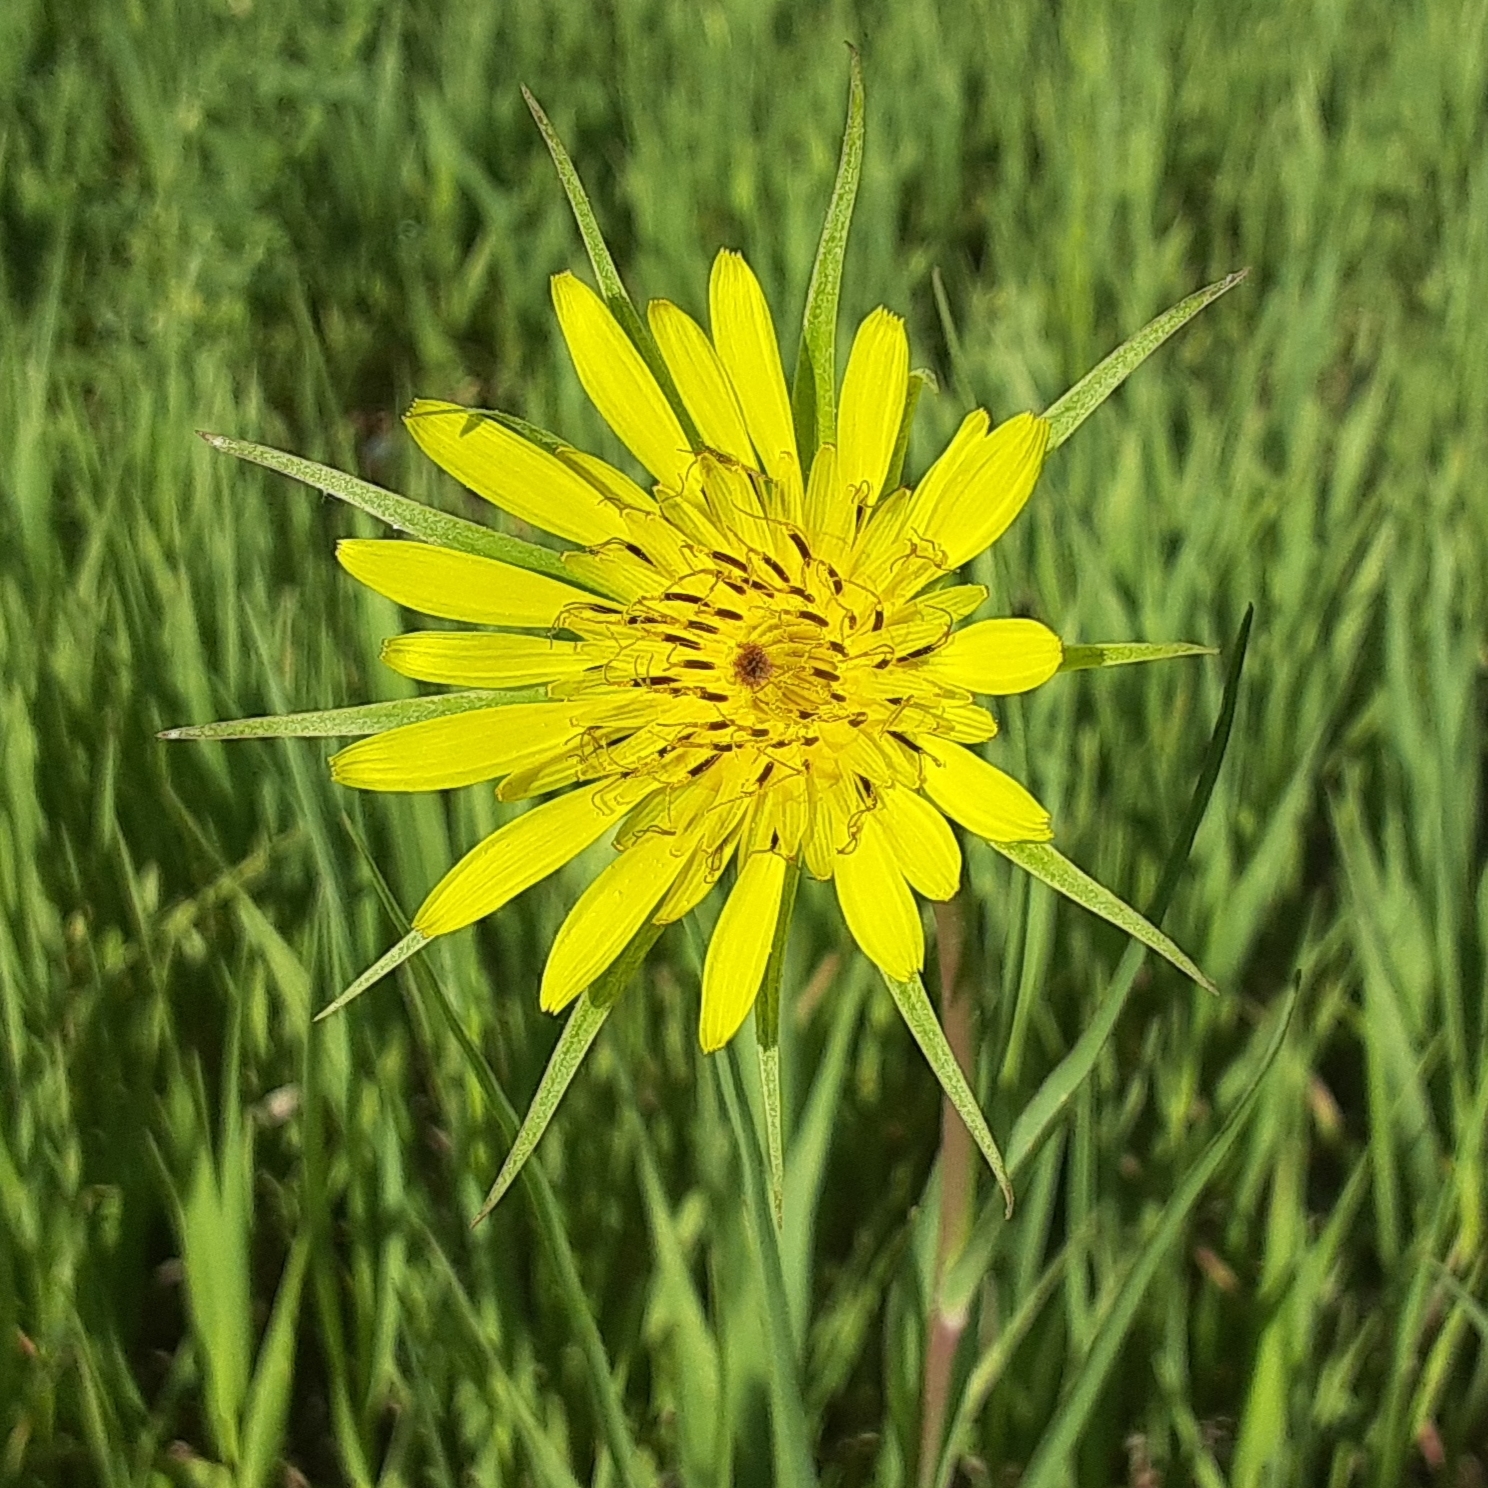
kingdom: Plantae
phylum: Tracheophyta
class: Magnoliopsida
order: Asterales
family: Asteraceae
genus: Tragopogon
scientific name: Tragopogon dubius
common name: Yellow salsify
